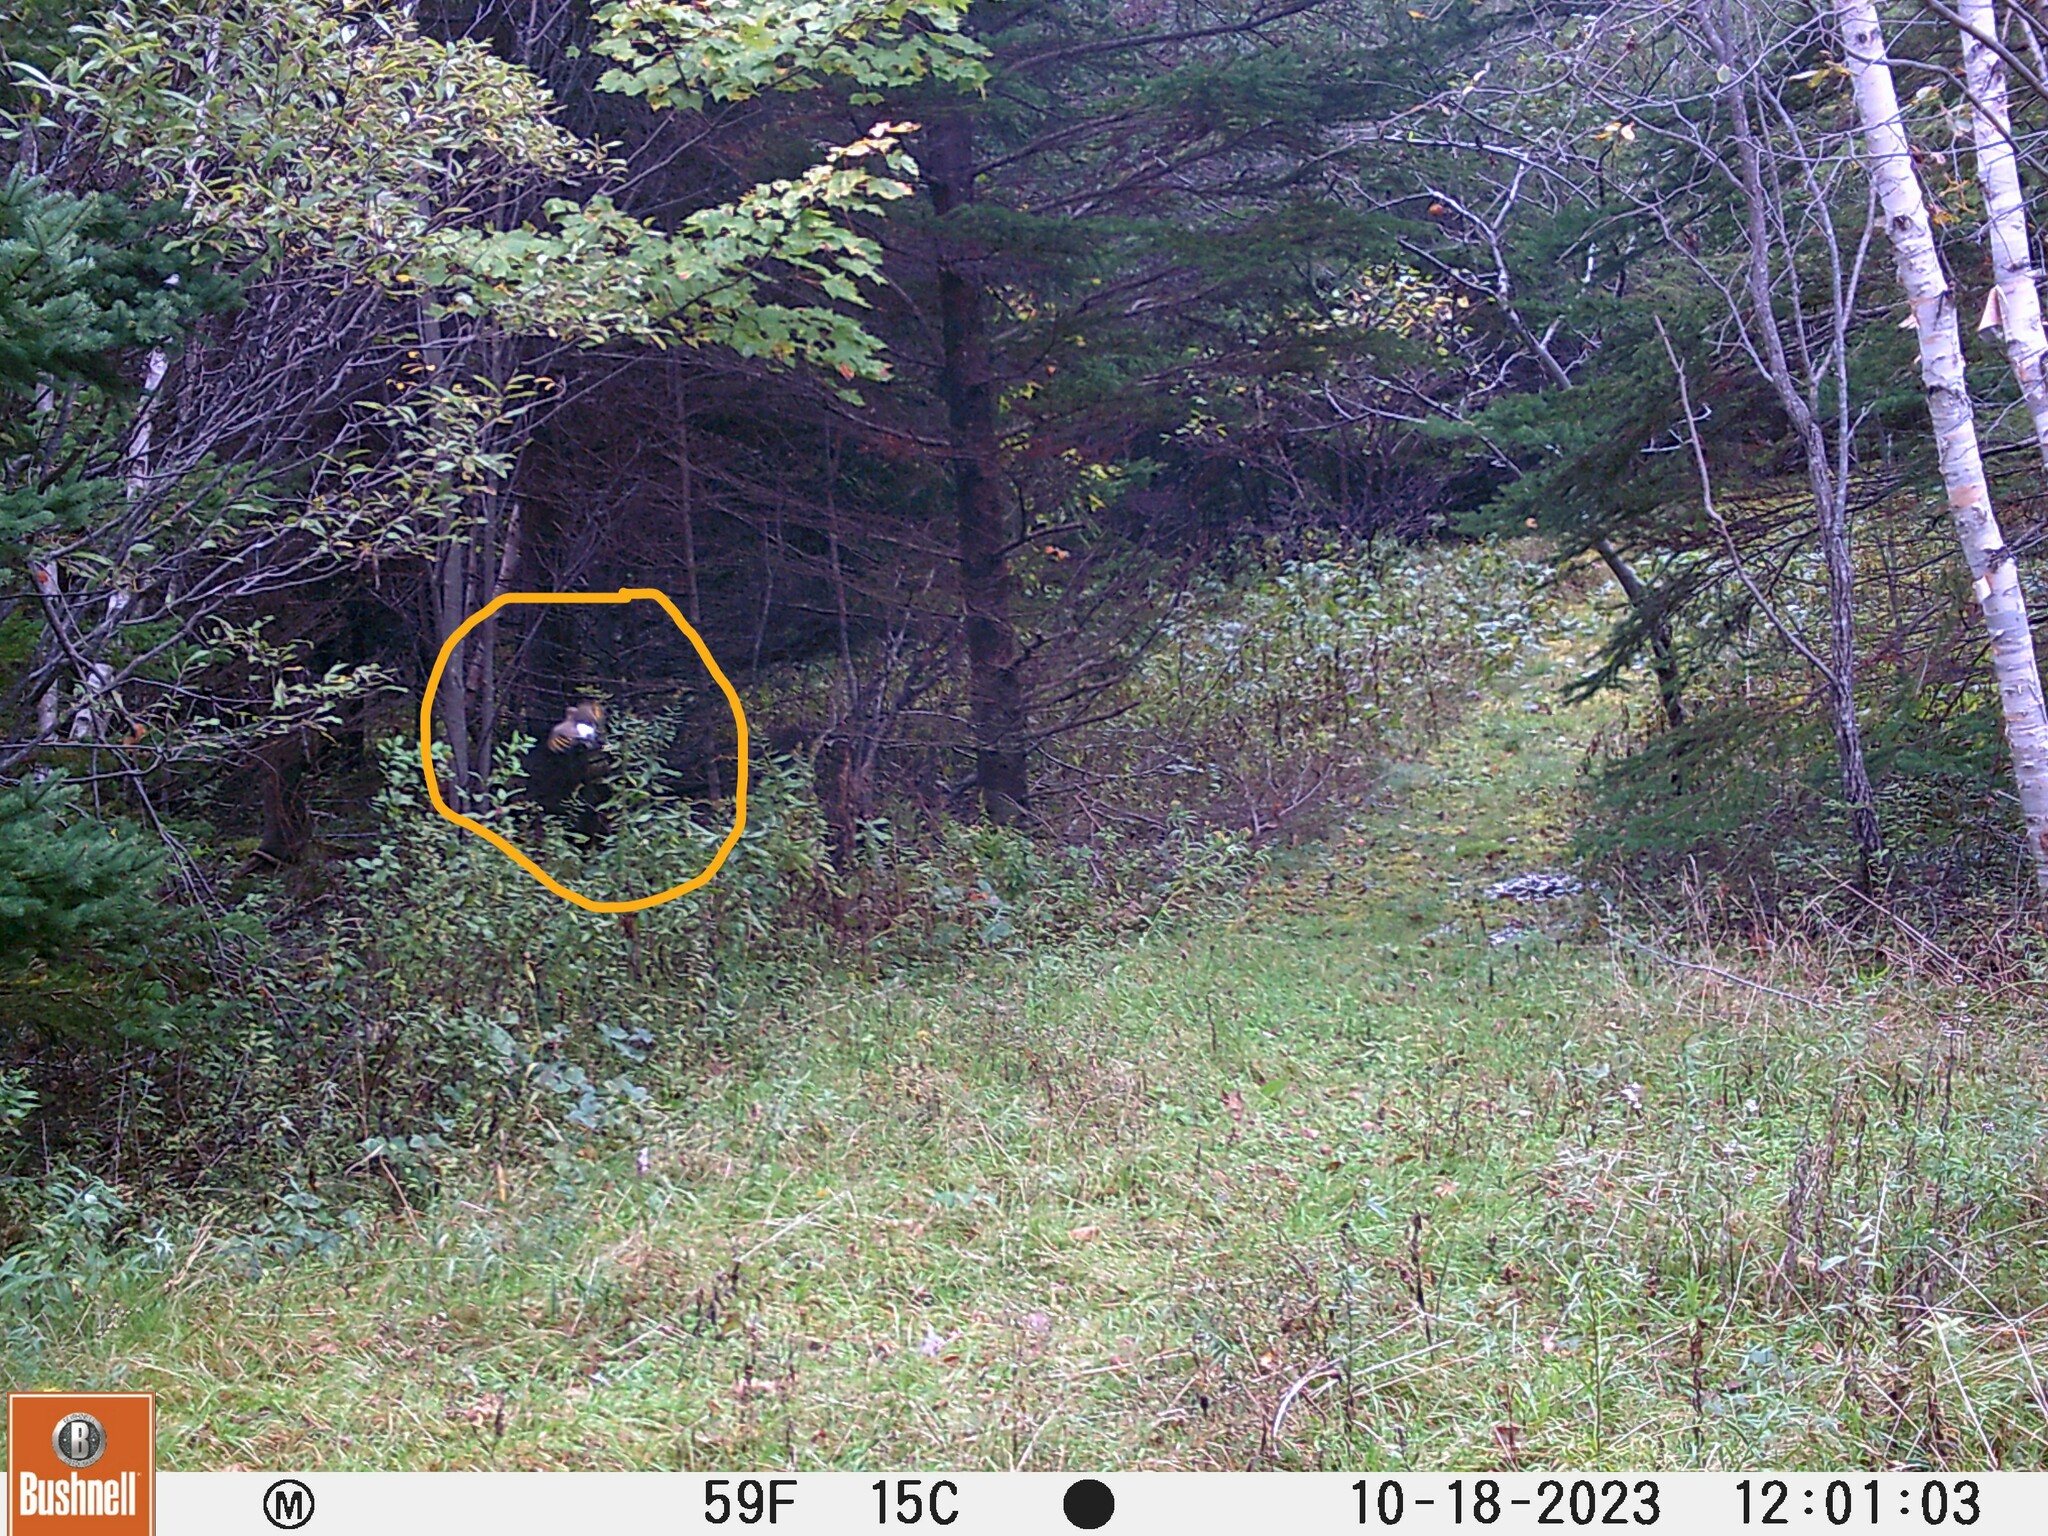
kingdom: Animalia
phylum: Chordata
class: Aves
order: Piciformes
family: Picidae
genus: Colaptes
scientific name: Colaptes auratus
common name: Northern flicker
